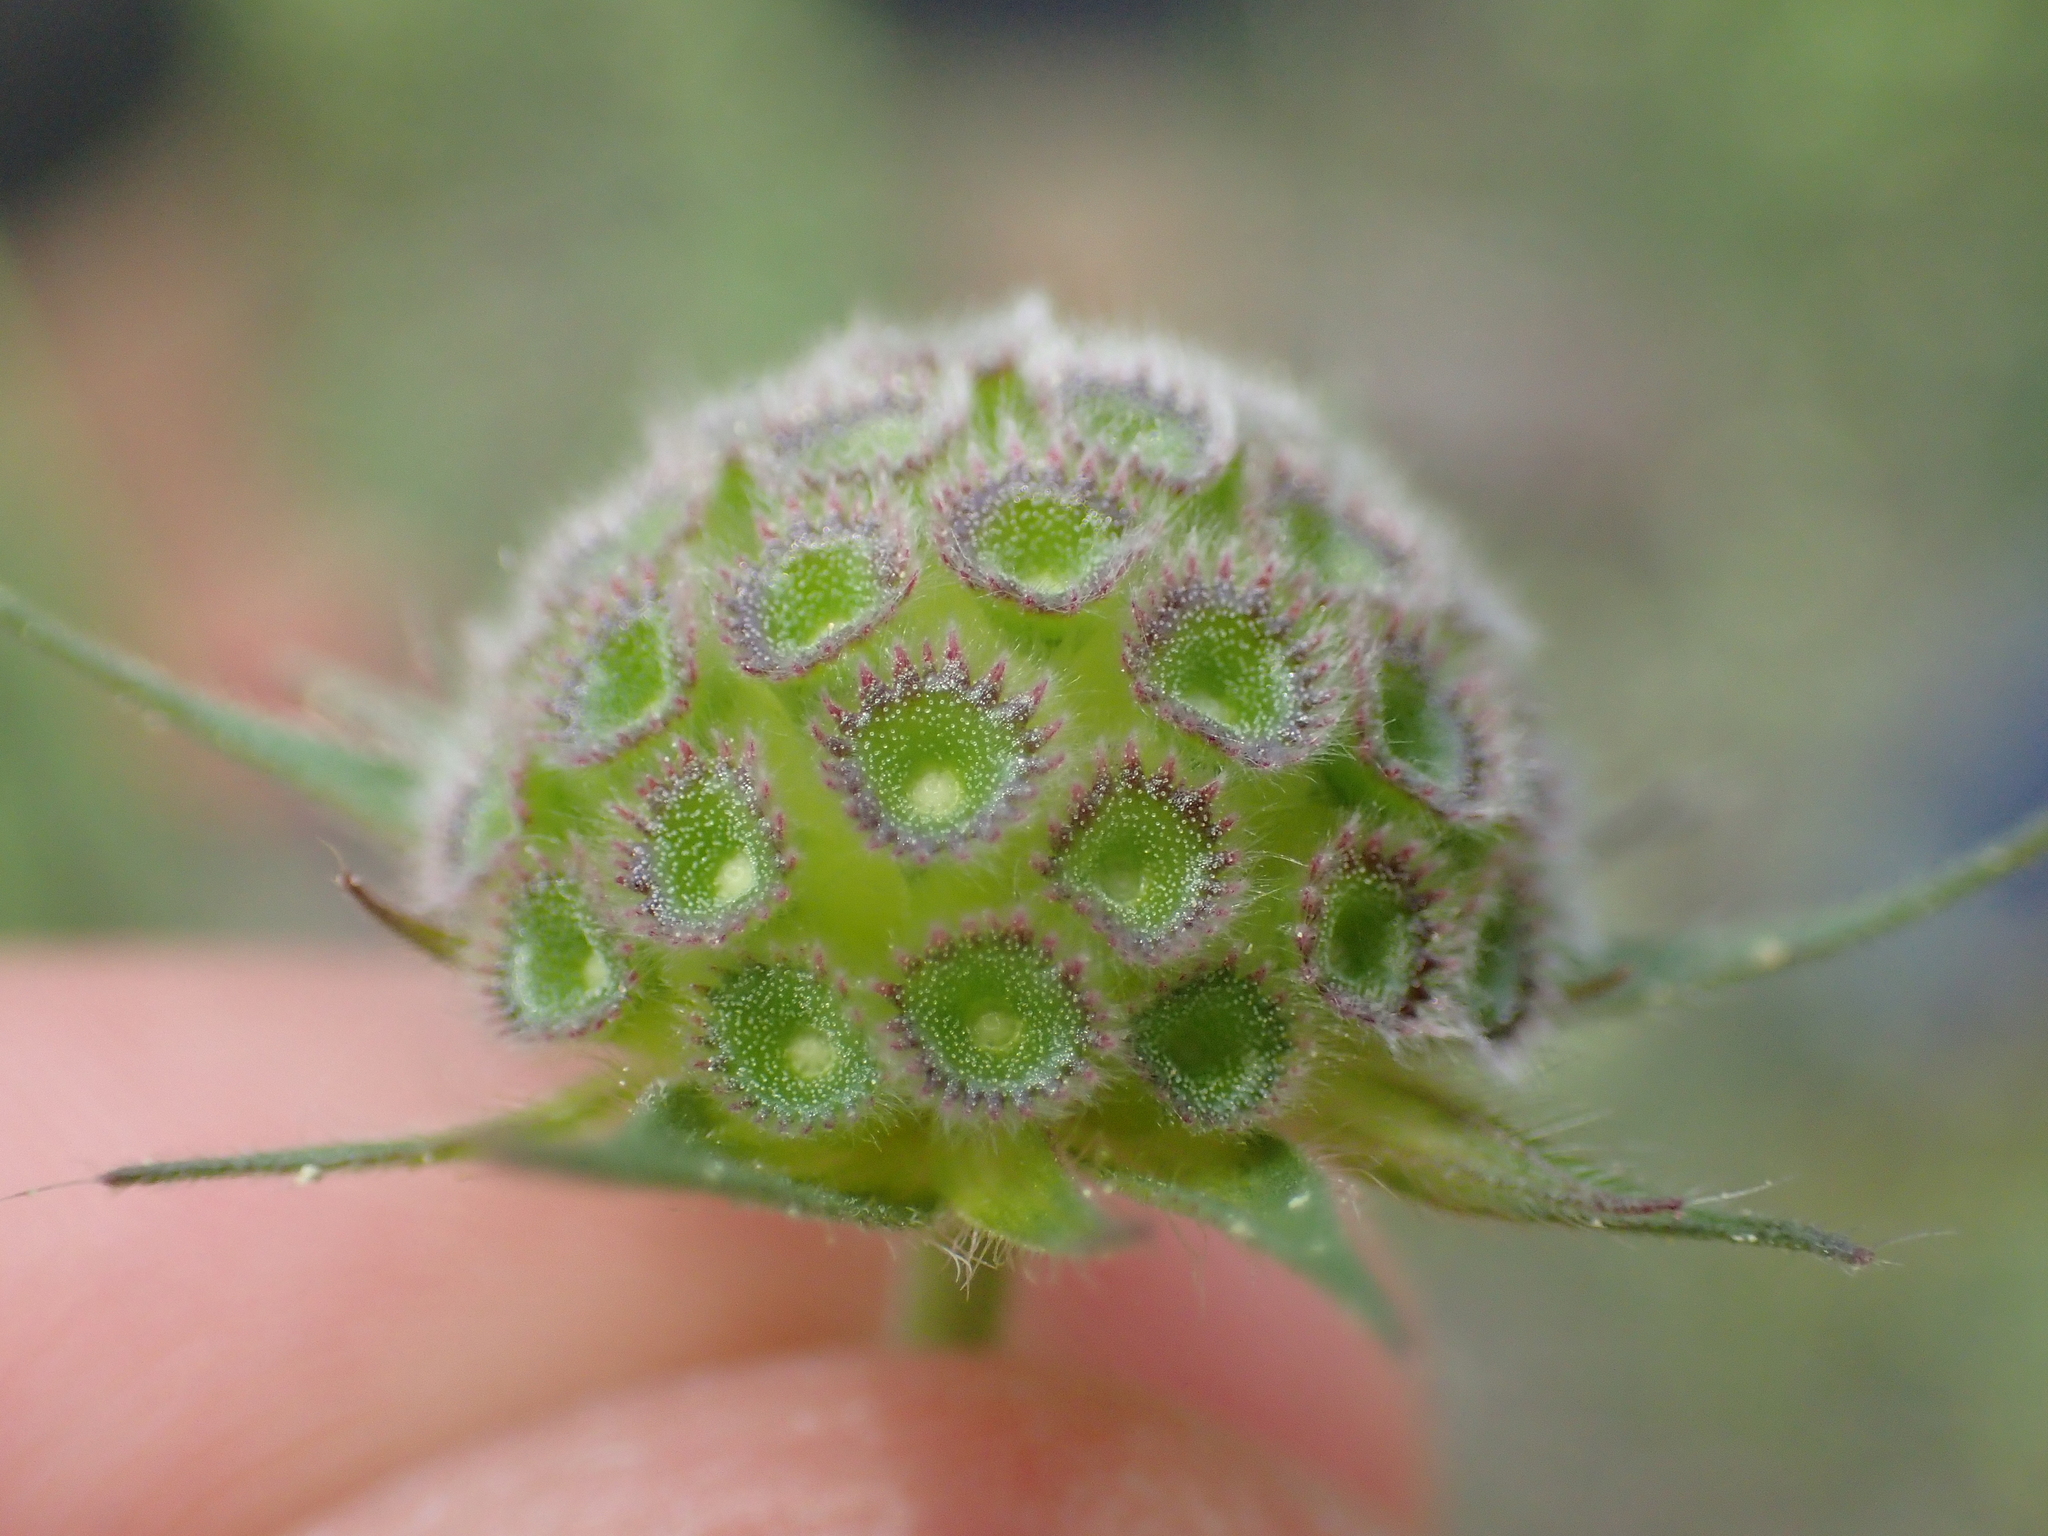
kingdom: Plantae
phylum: Tracheophyta
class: Magnoliopsida
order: Dipsacales
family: Caprifoliaceae
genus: Knautia
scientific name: Knautia integrifolia
